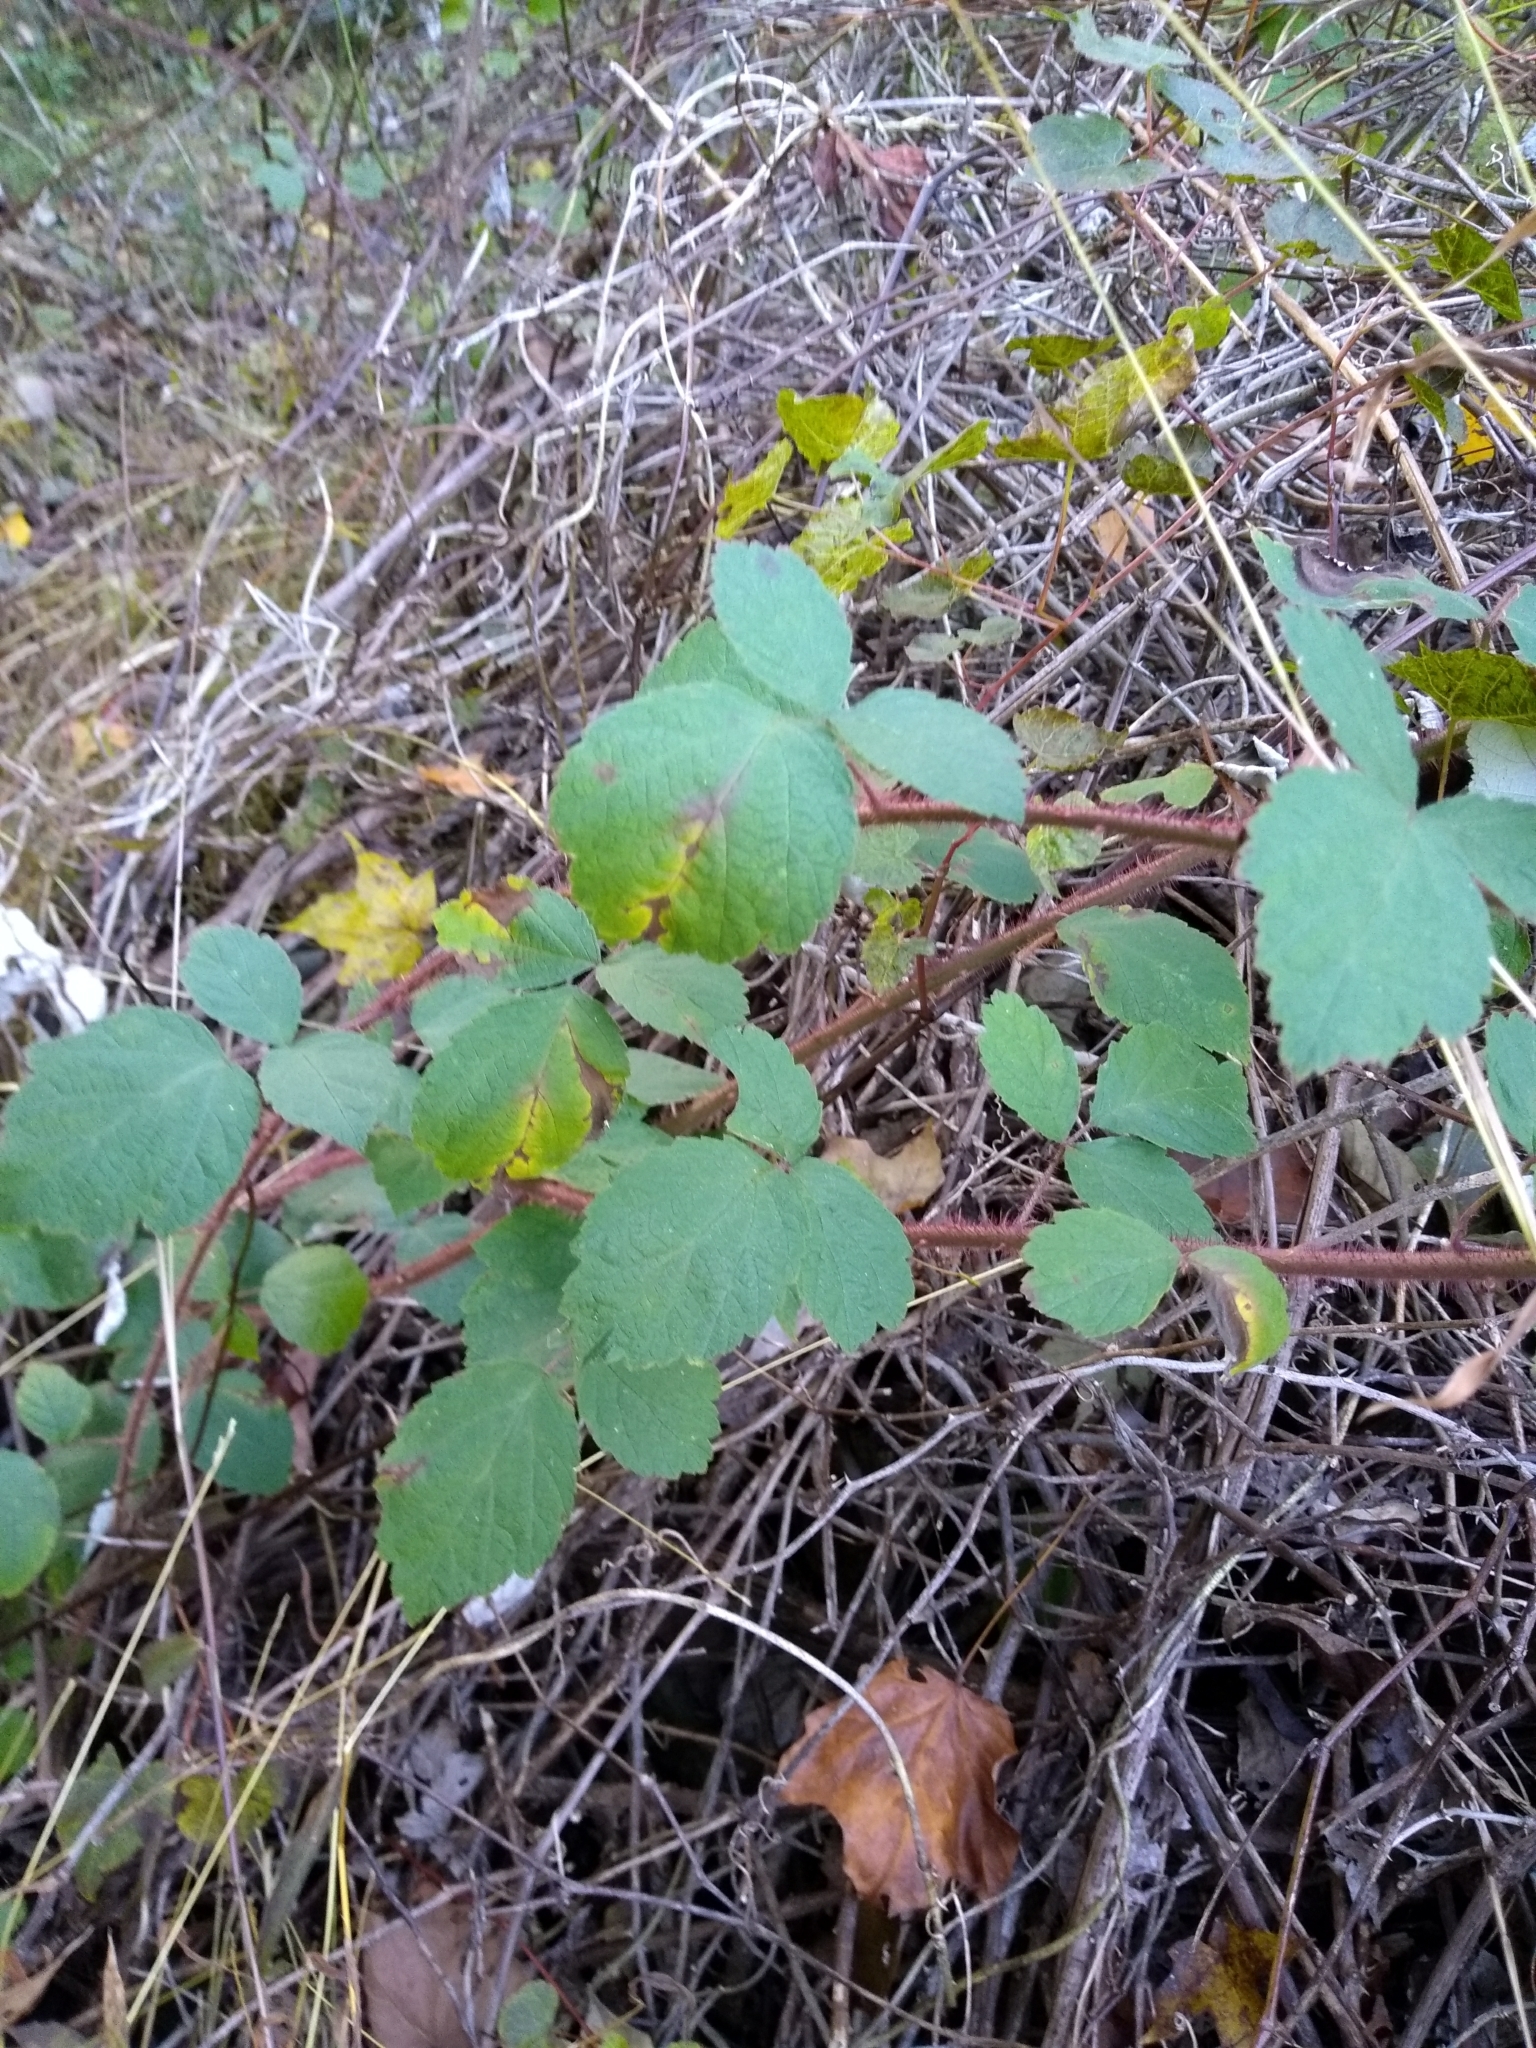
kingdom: Plantae
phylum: Tracheophyta
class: Magnoliopsida
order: Rosales
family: Rosaceae
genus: Rubus
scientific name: Rubus phoenicolasius
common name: Japanese wineberry
